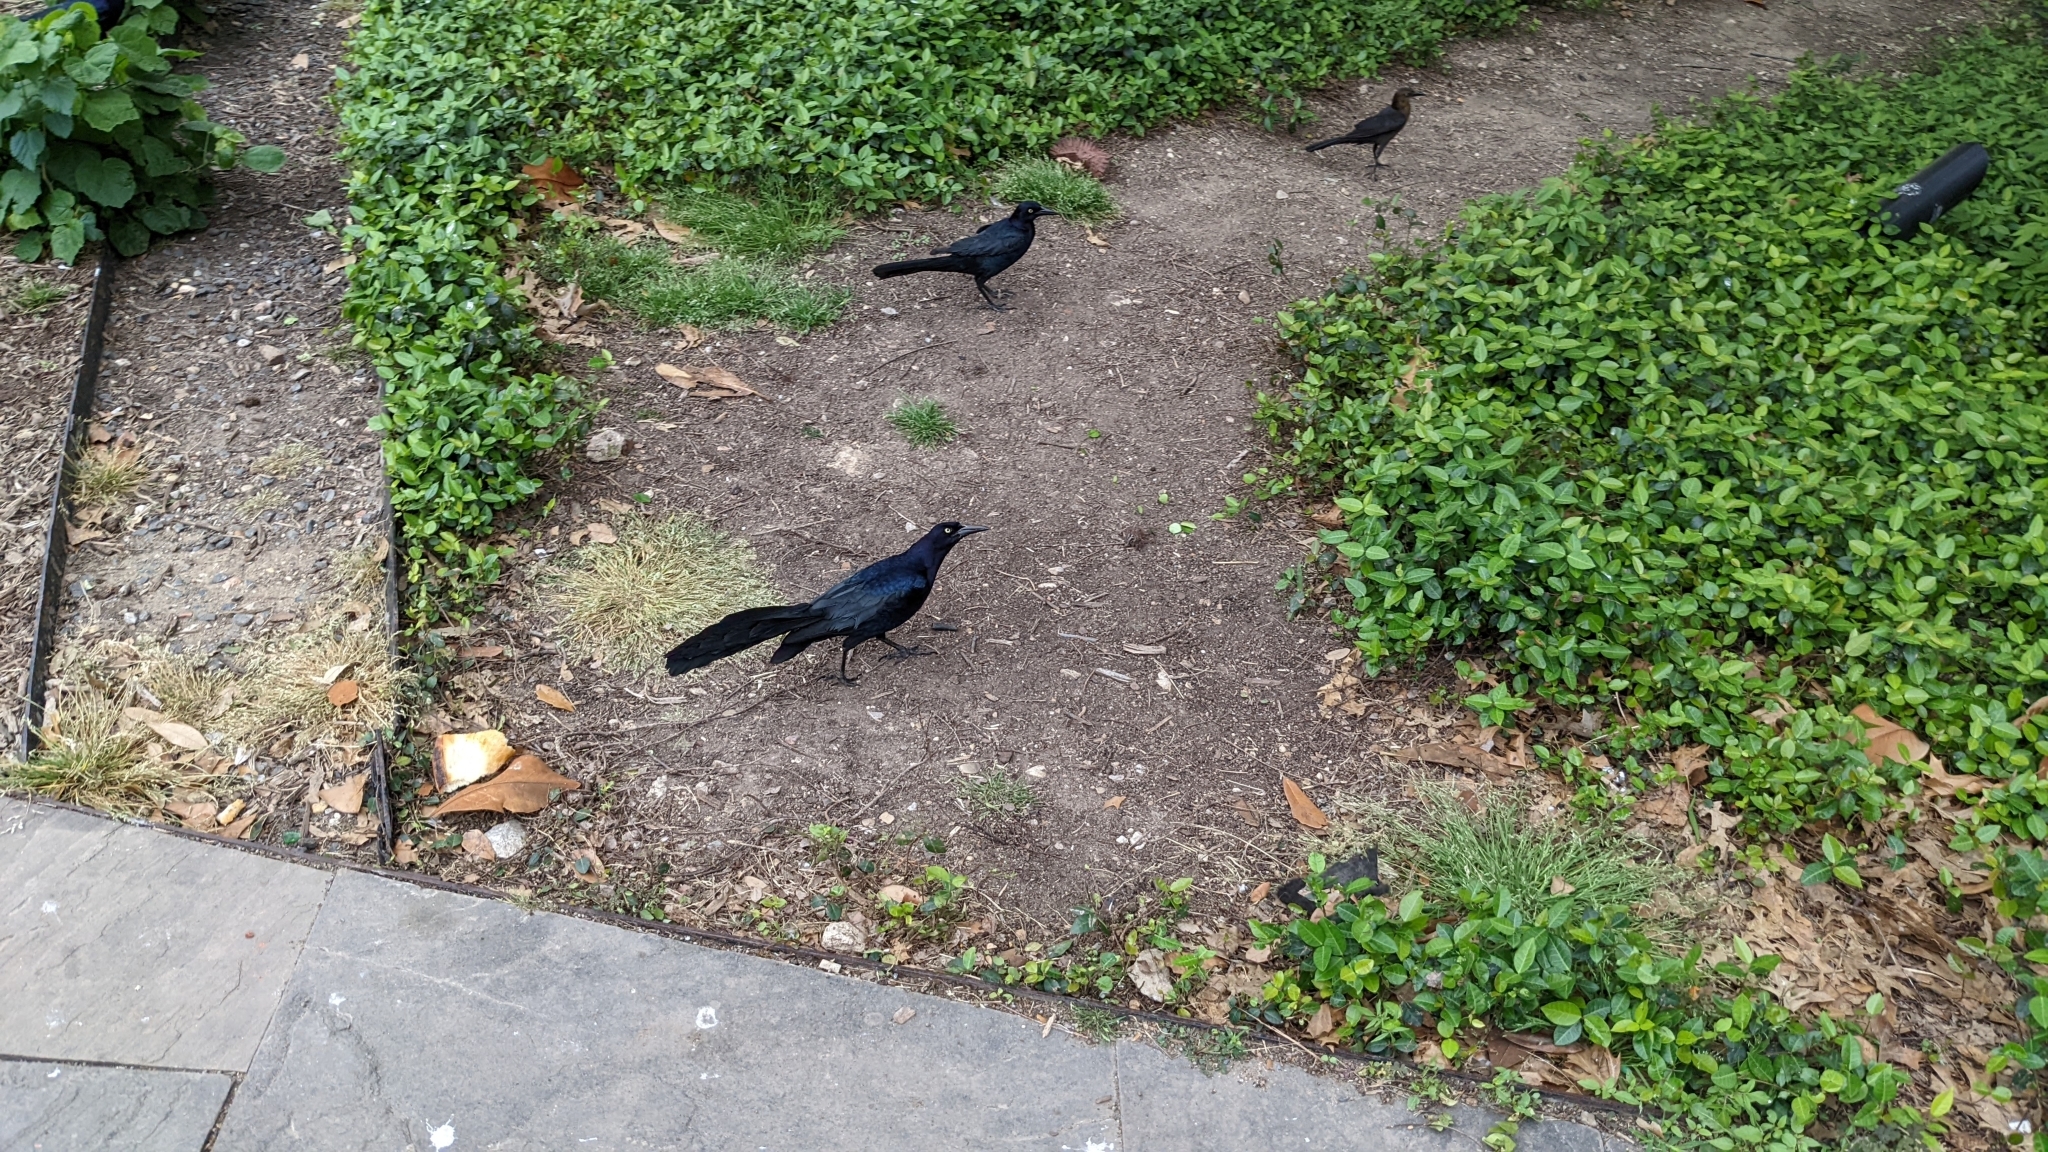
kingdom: Animalia
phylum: Chordata
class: Aves
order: Passeriformes
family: Icteridae
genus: Quiscalus
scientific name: Quiscalus mexicanus
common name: Great-tailed grackle
